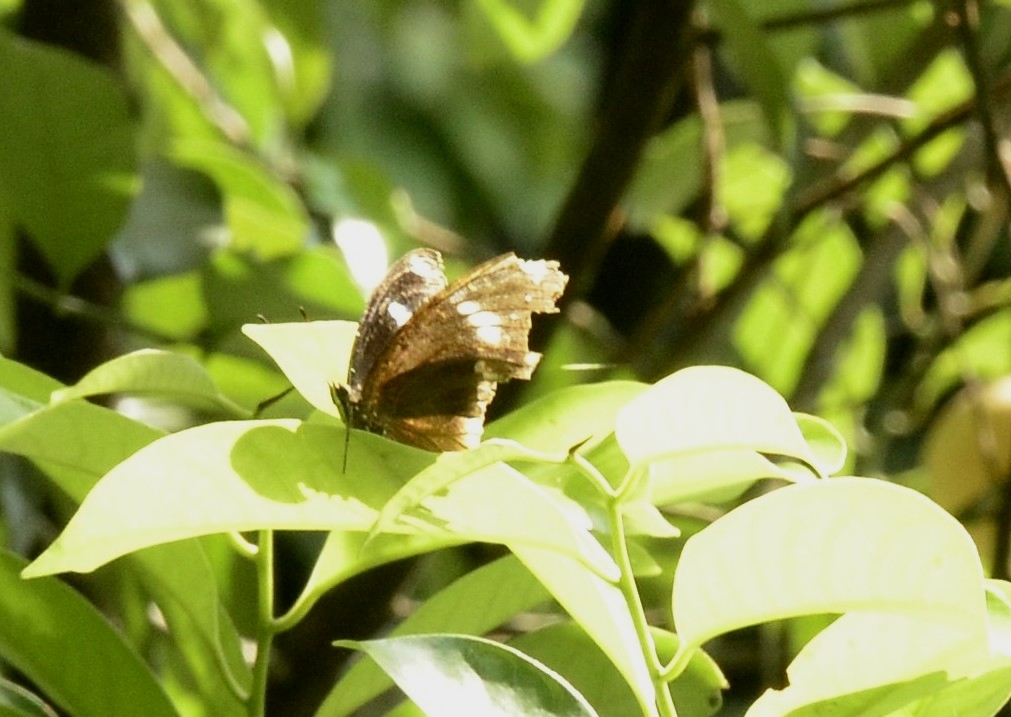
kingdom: Animalia
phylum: Arthropoda
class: Insecta
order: Lepidoptera
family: Nymphalidae
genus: Hypolimnas
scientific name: Hypolimnas bolina
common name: Great eggfly
